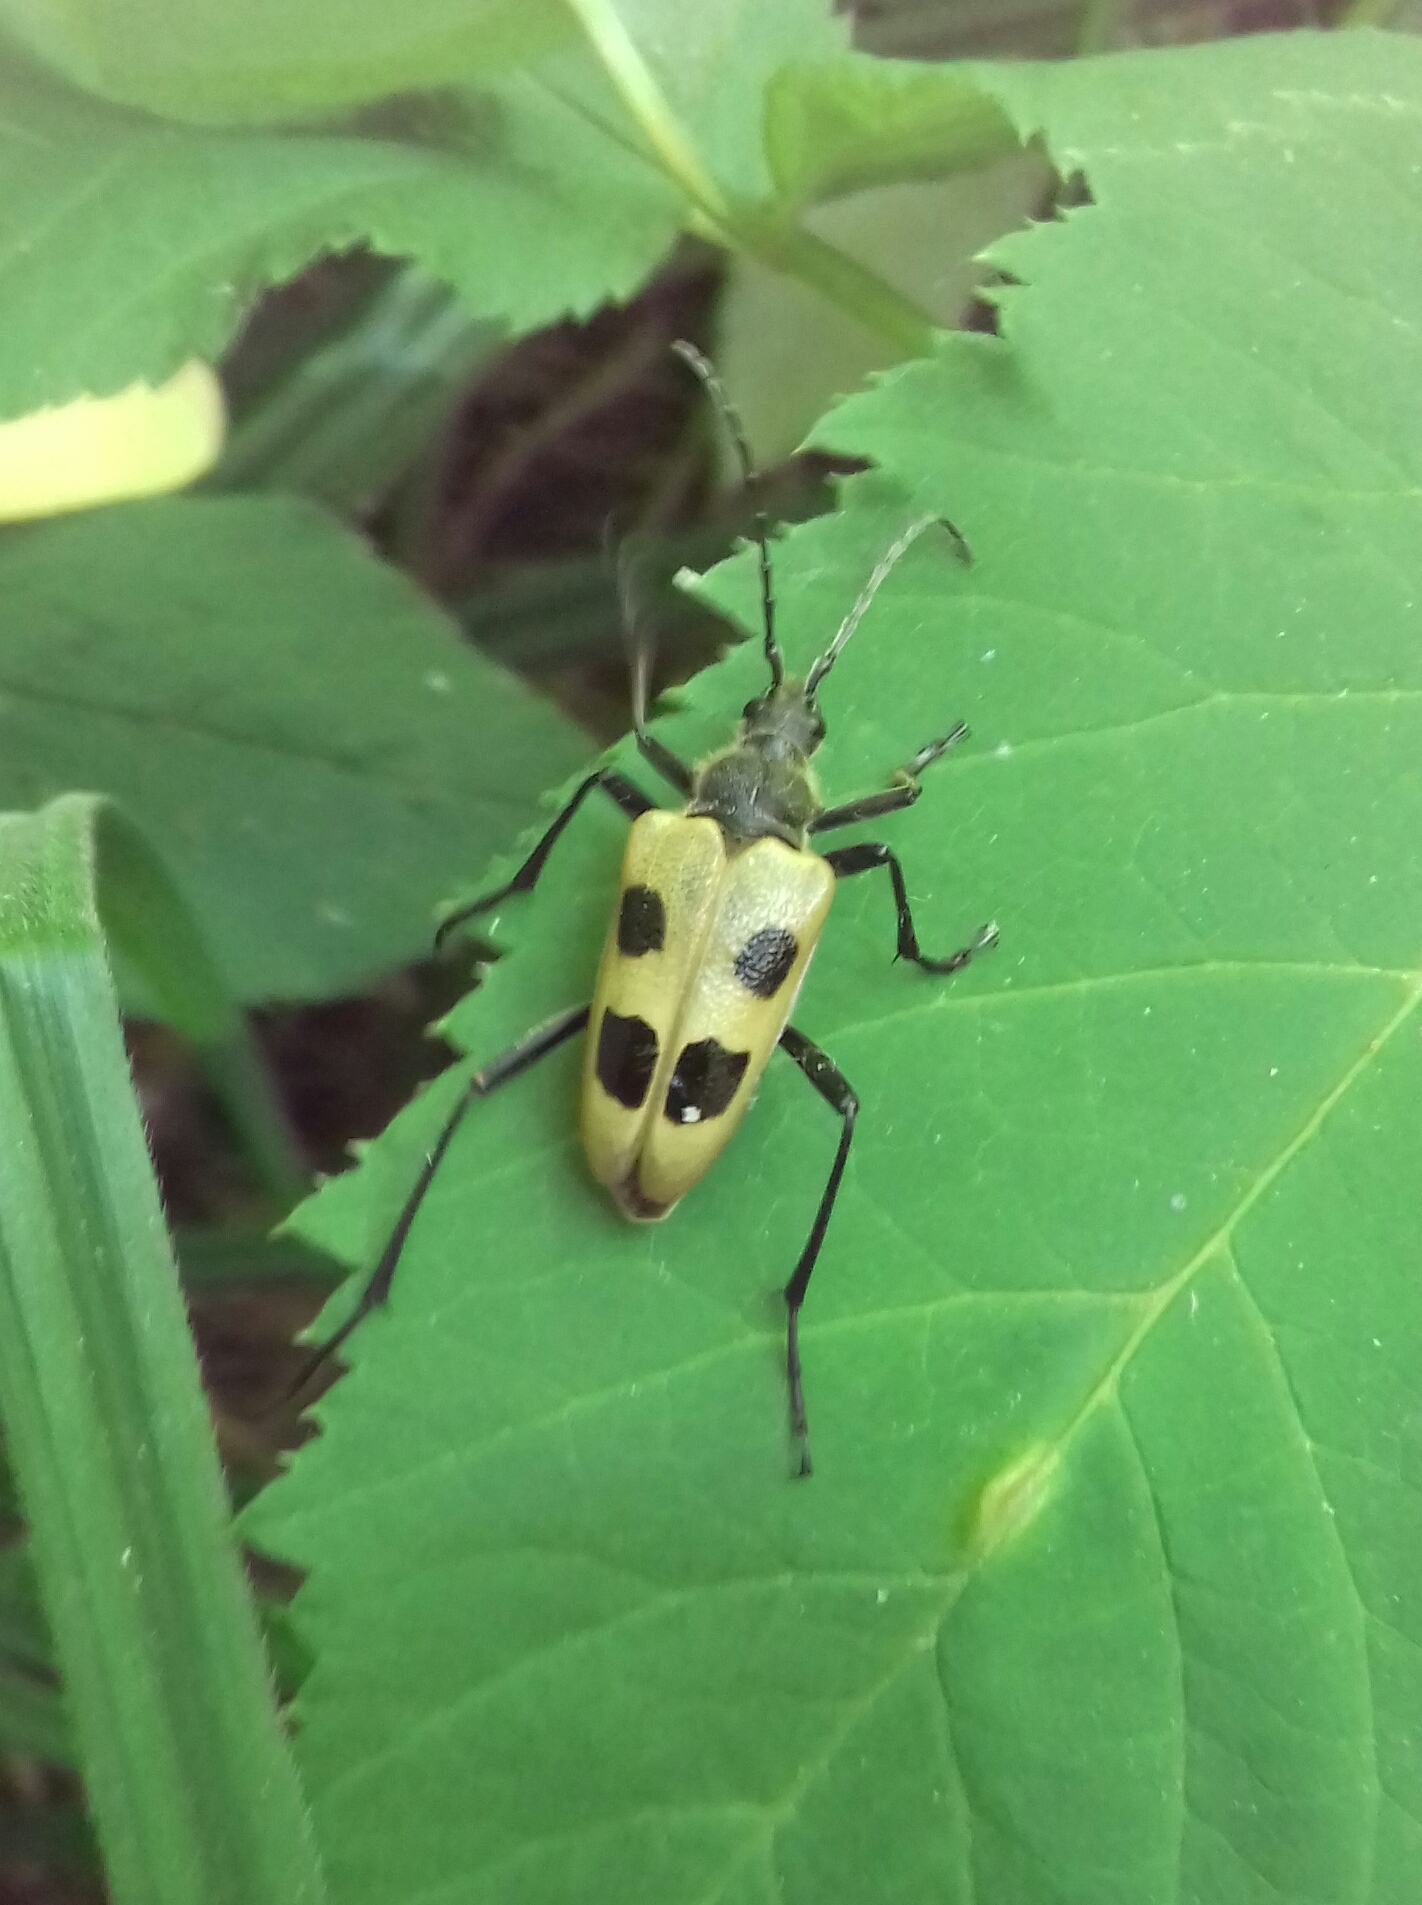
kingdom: Animalia
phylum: Arthropoda
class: Insecta
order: Coleoptera
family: Cerambycidae
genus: Pachyta
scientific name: Pachyta quadrimaculata
